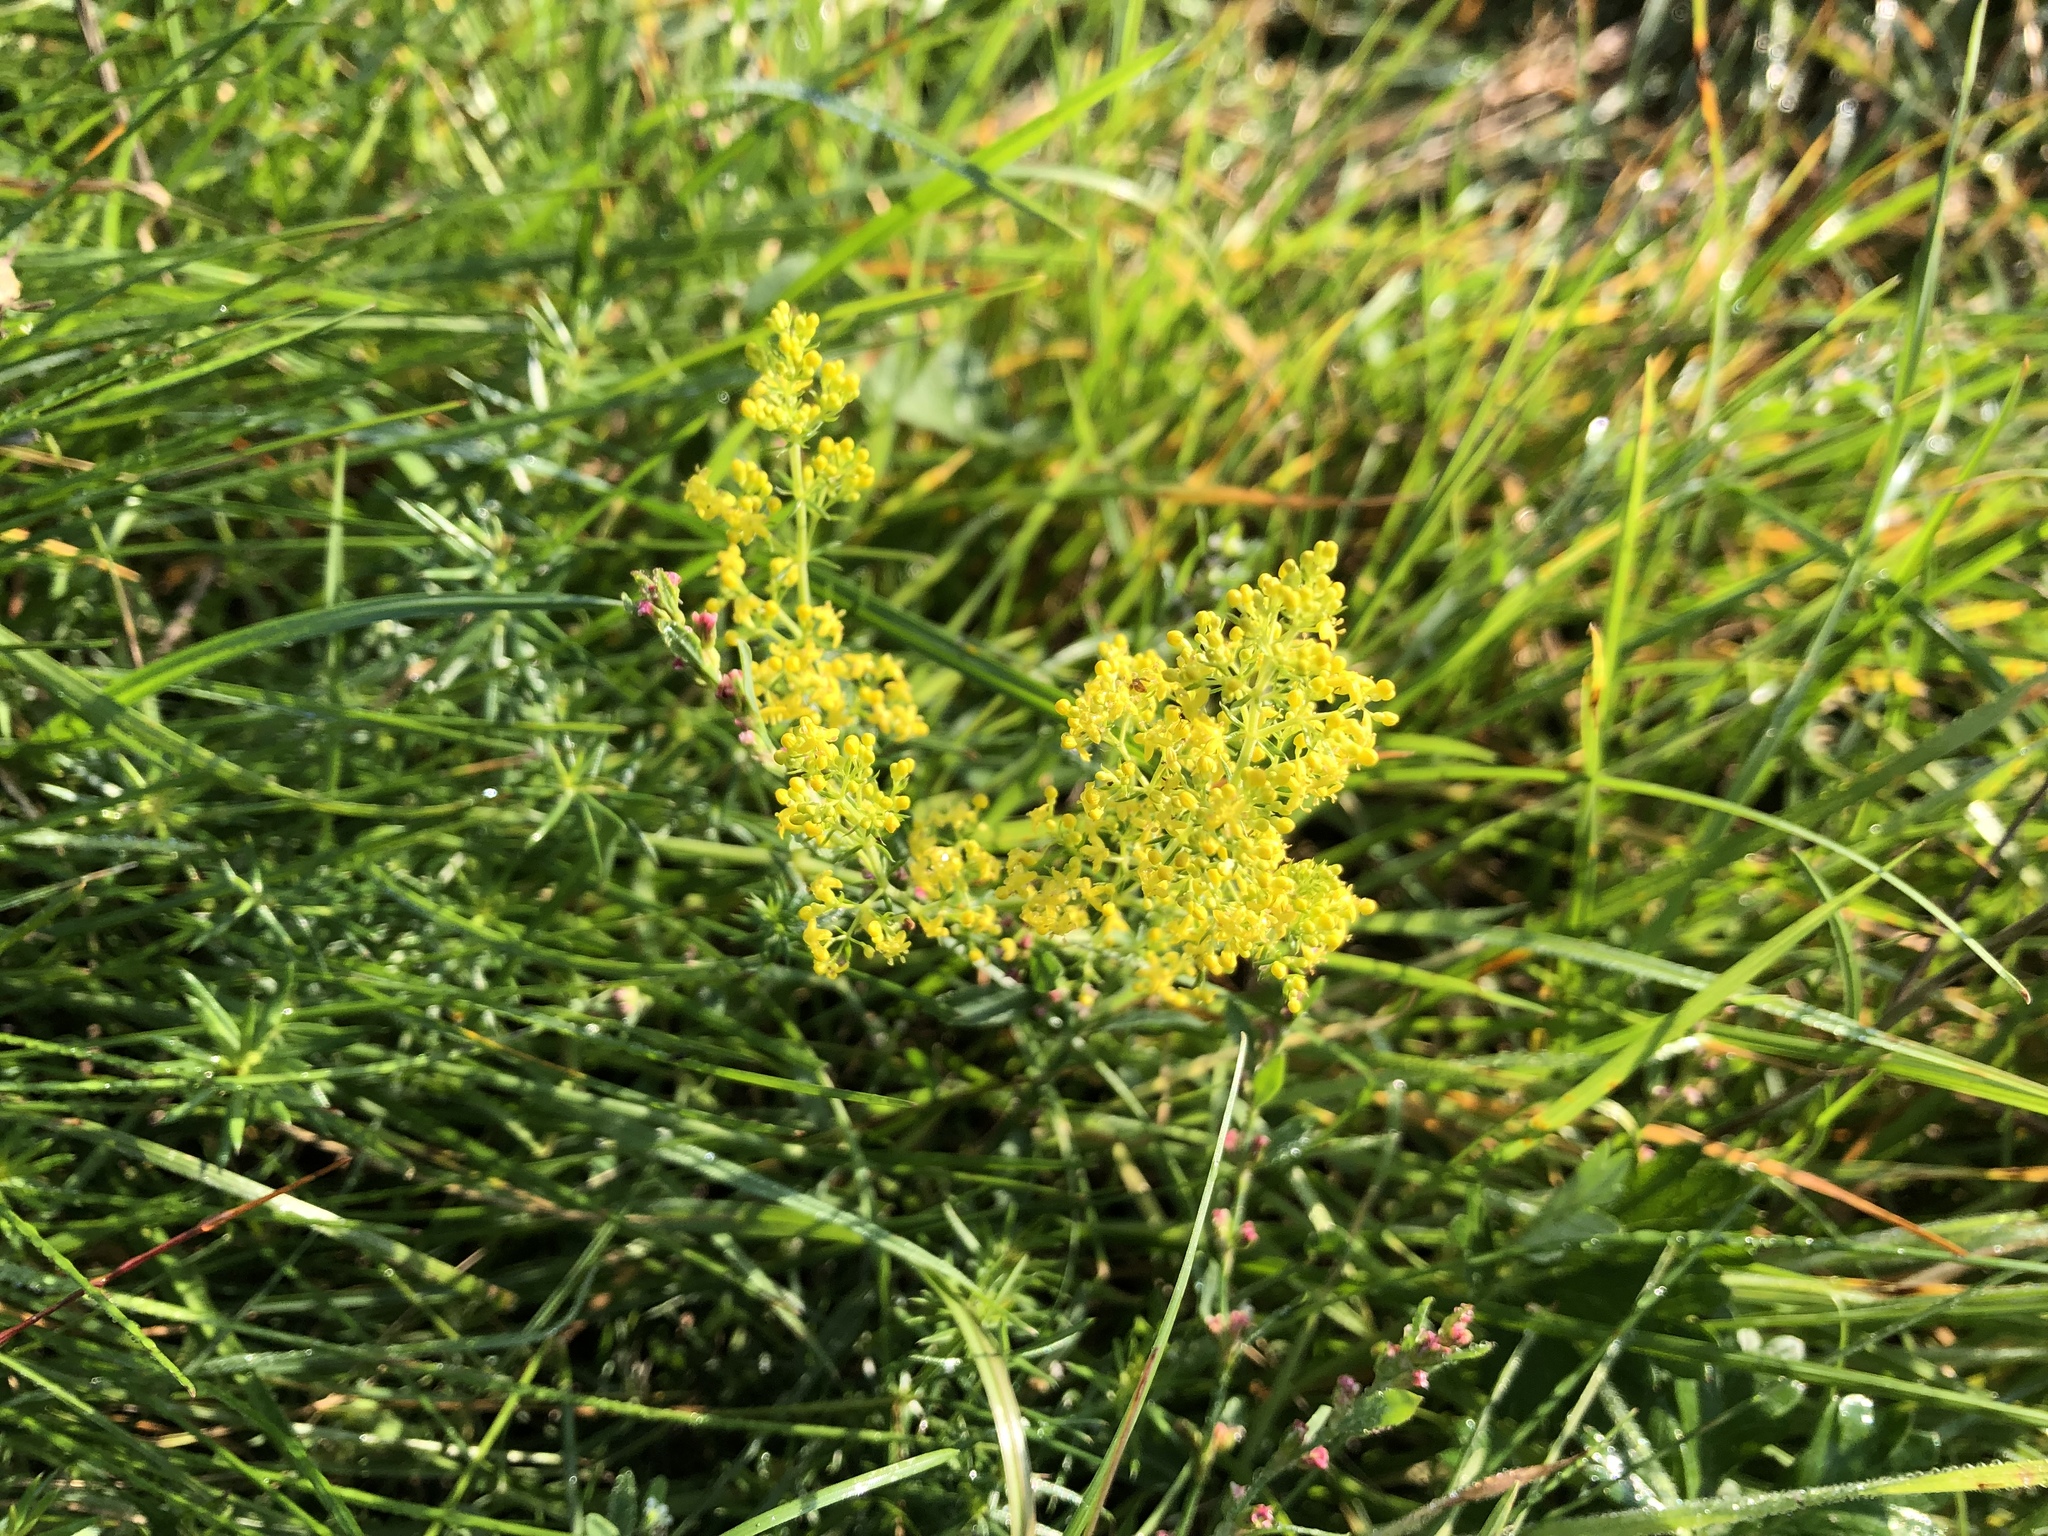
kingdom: Plantae
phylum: Tracheophyta
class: Magnoliopsida
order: Gentianales
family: Rubiaceae
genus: Galium
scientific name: Galium verum
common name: Lady's bedstraw
